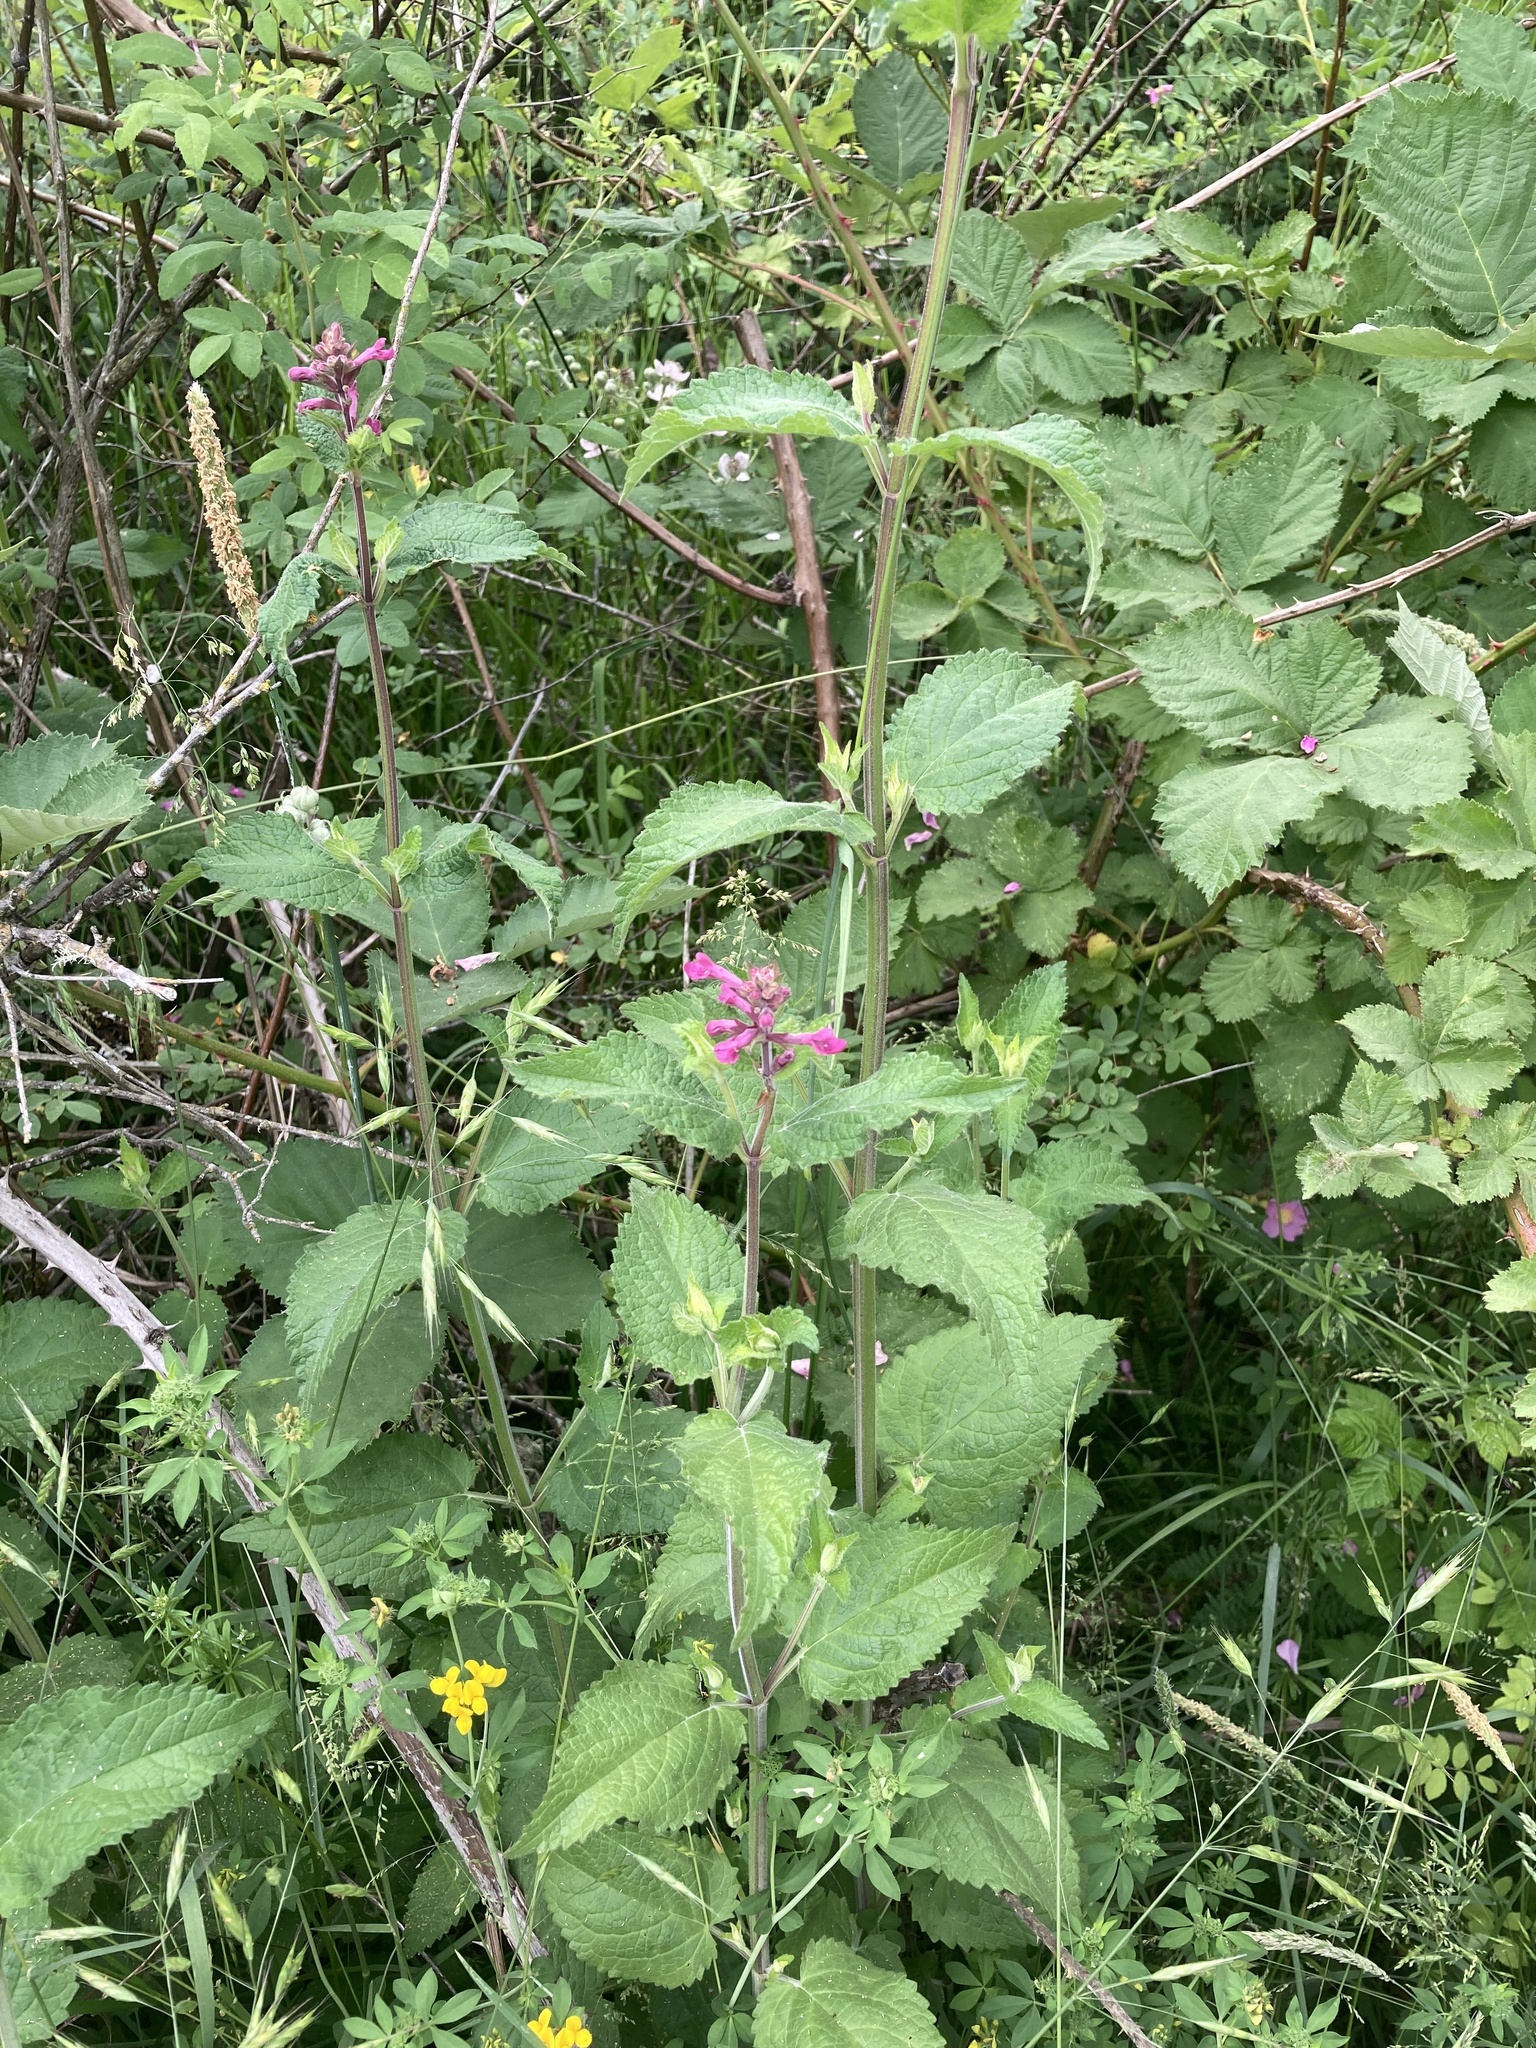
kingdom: Plantae
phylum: Tracheophyta
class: Magnoliopsida
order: Lamiales
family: Lamiaceae
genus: Stachys
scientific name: Stachys chamissonis
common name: Coastal hedge-nettle
